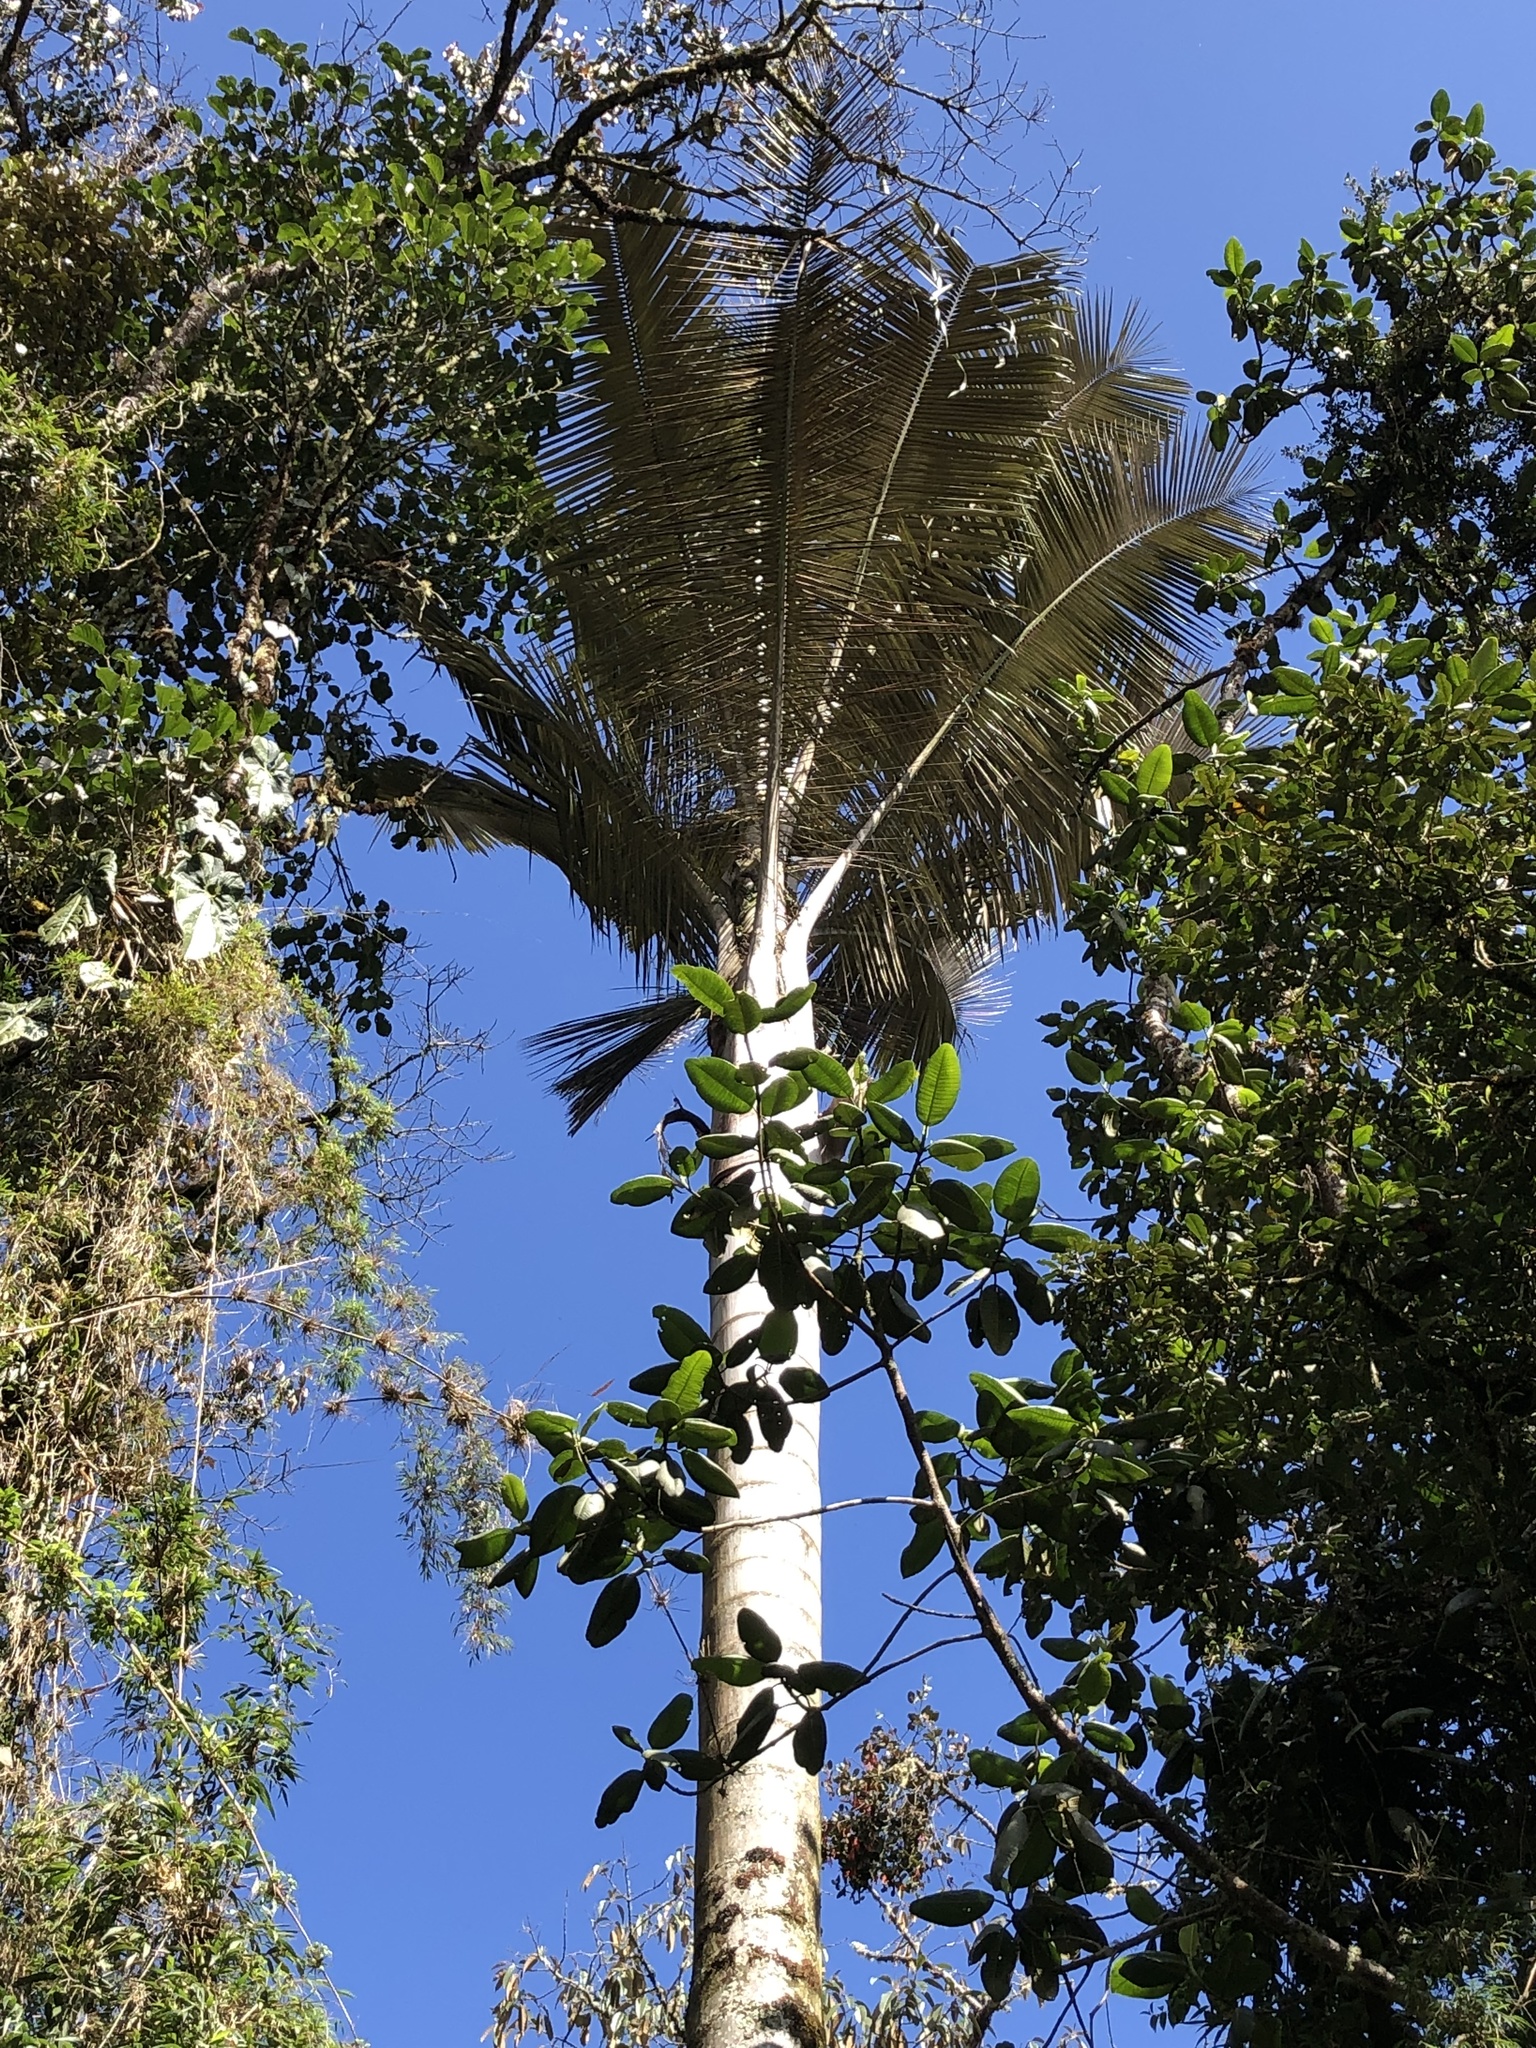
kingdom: Plantae
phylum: Tracheophyta
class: Liliopsida
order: Arecales
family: Arecaceae
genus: Ceroxylon
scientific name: Ceroxylon quindiuense
